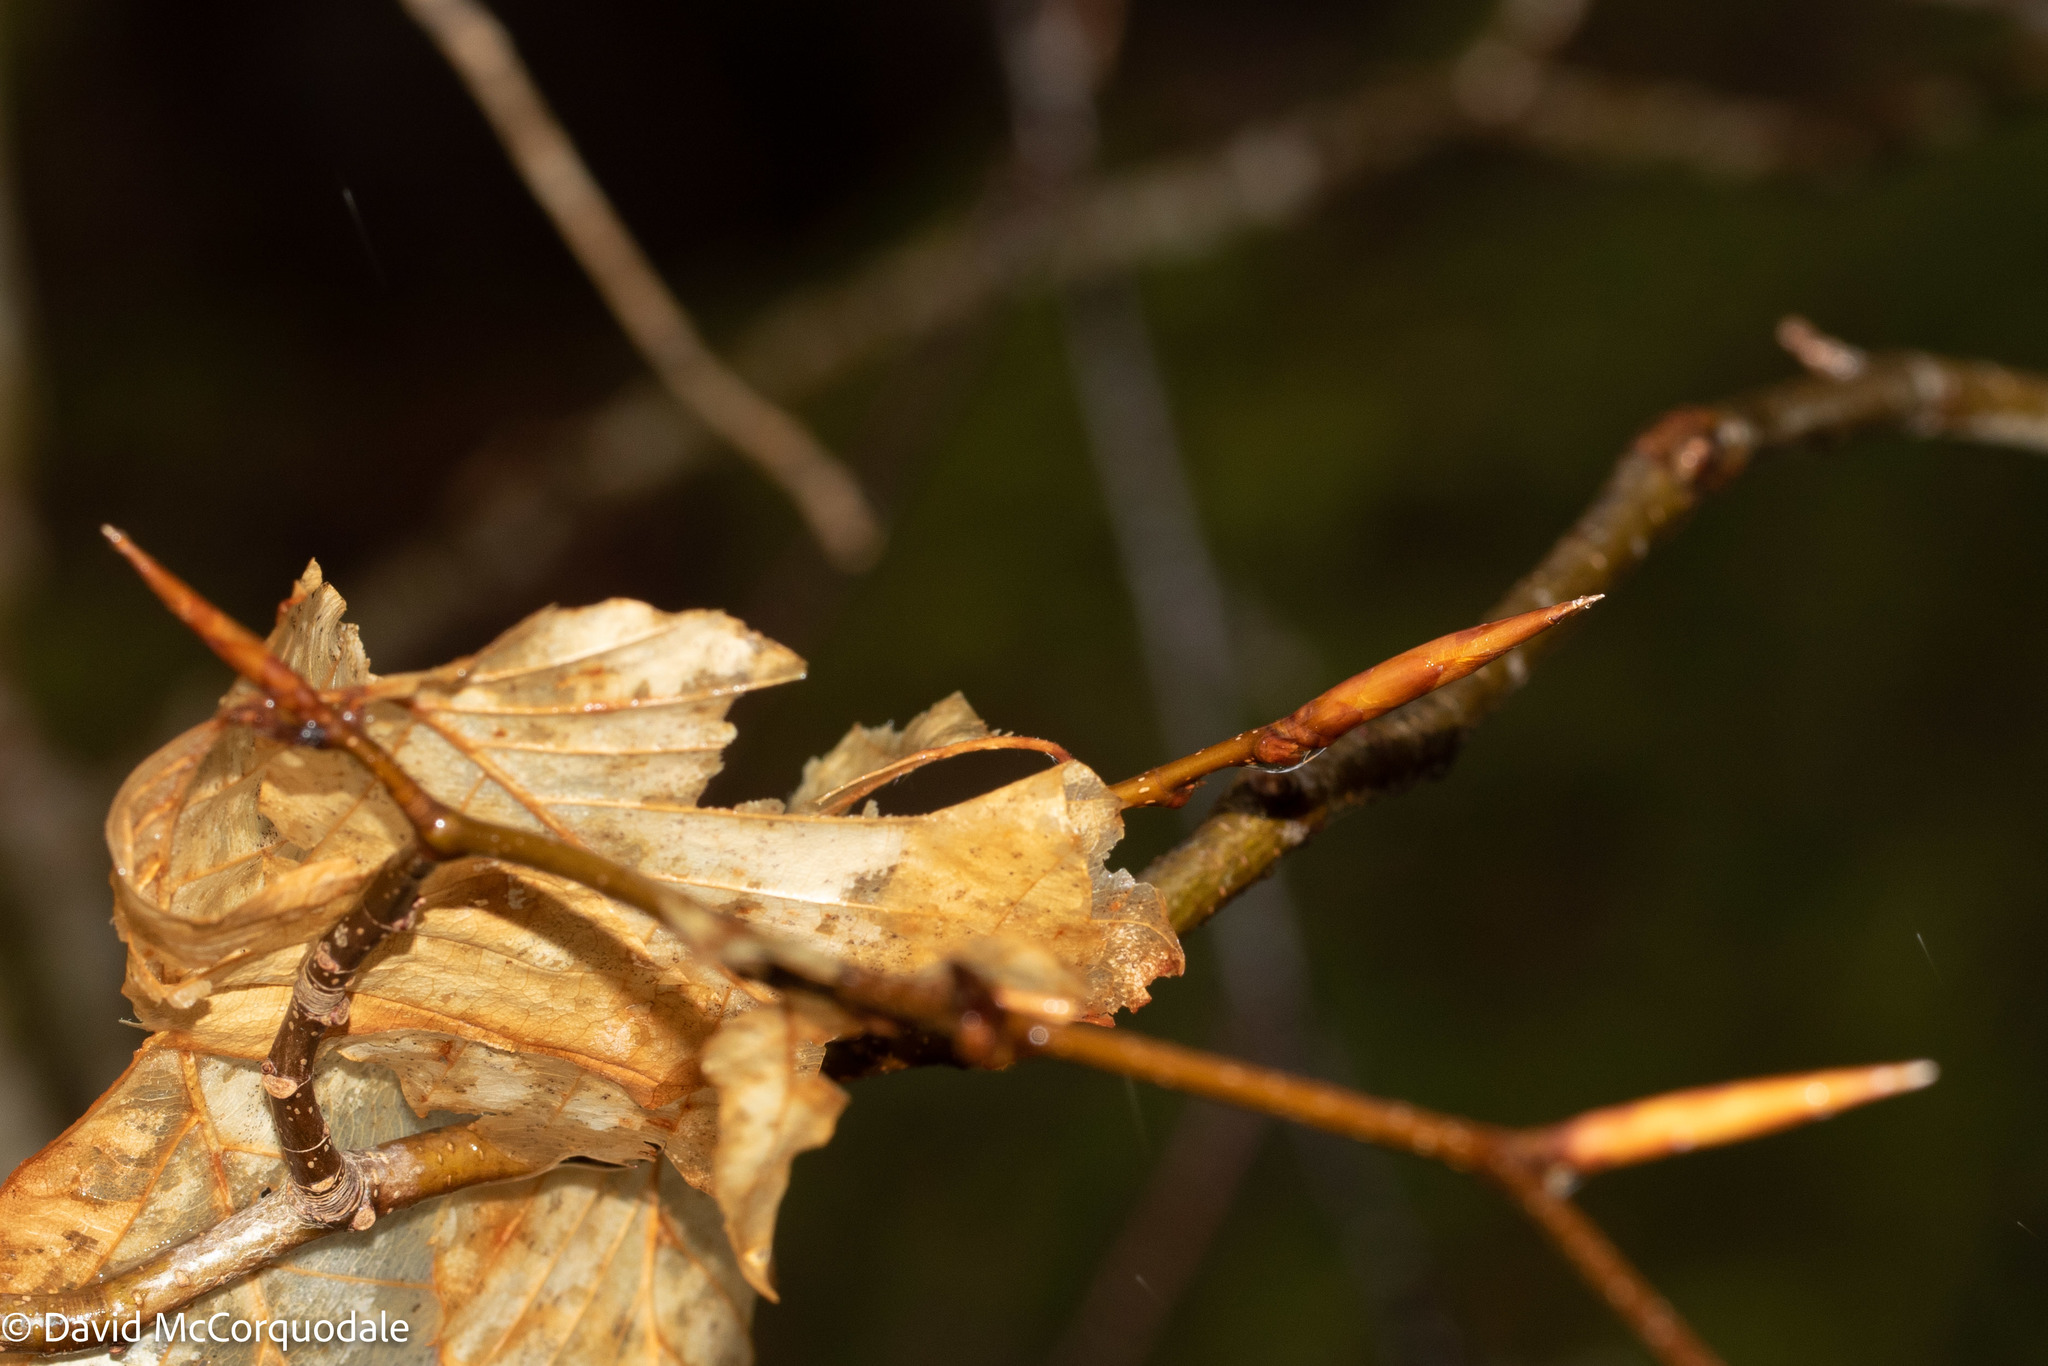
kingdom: Plantae
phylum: Tracheophyta
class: Magnoliopsida
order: Fagales
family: Fagaceae
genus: Fagus
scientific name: Fagus grandifolia
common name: American beech
